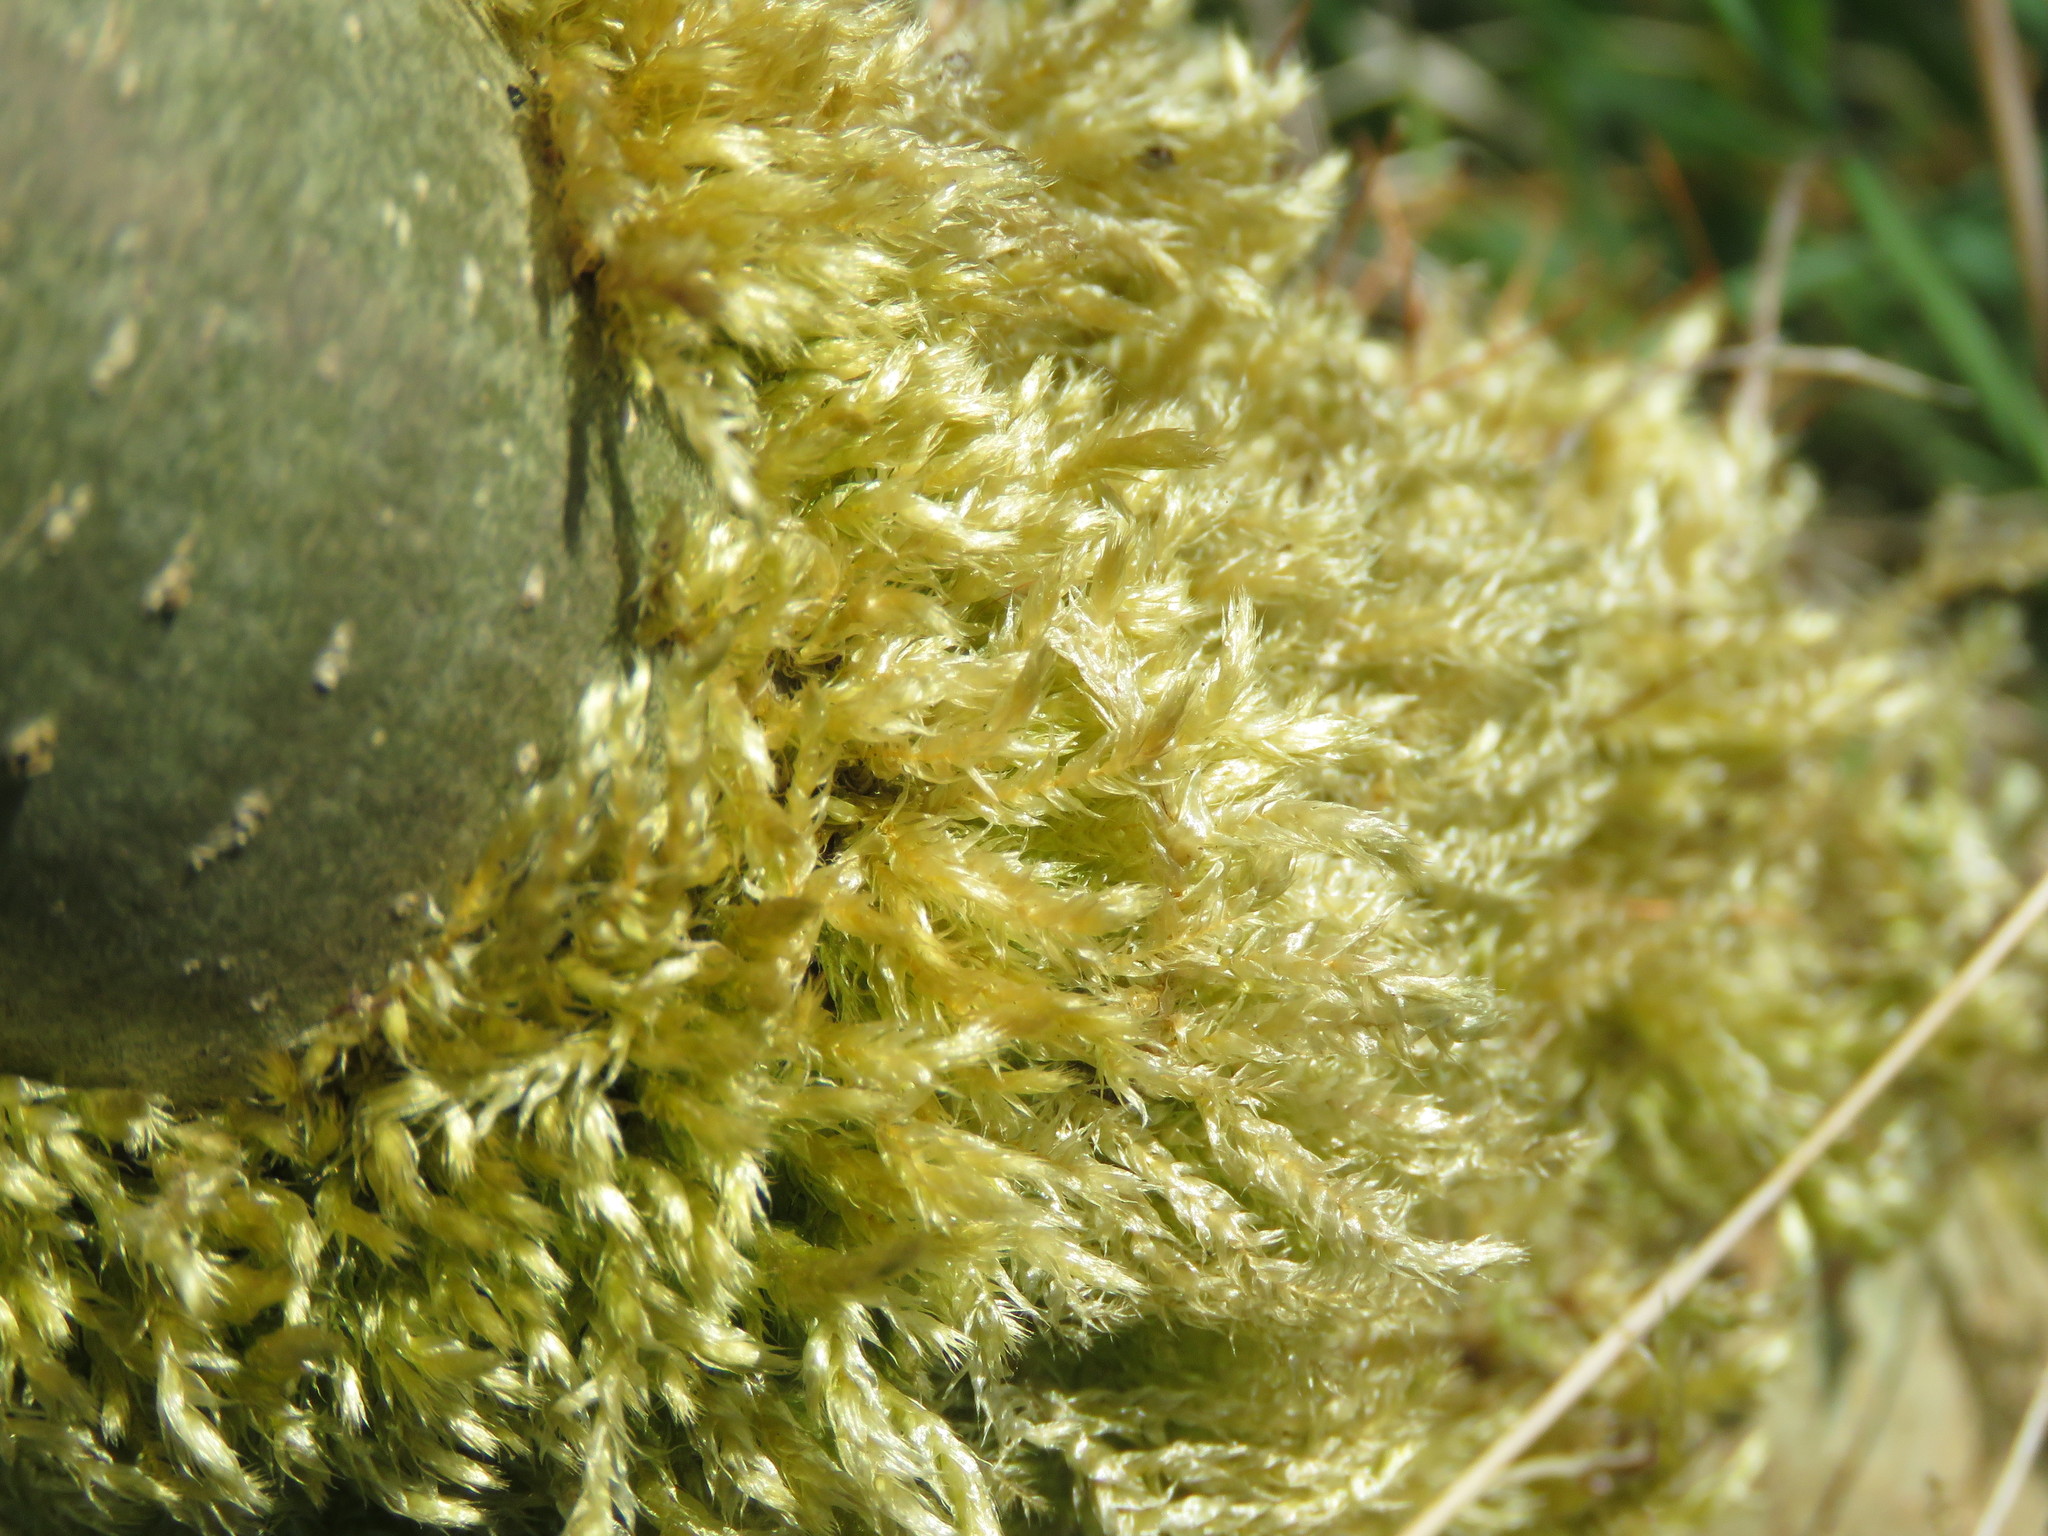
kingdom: Plantae
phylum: Bryophyta
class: Bryopsida
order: Hypnales
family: Brachytheciaceae
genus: Brachythecium
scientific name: Brachythecium rutabulum
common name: Rough-stalked feather-moss
